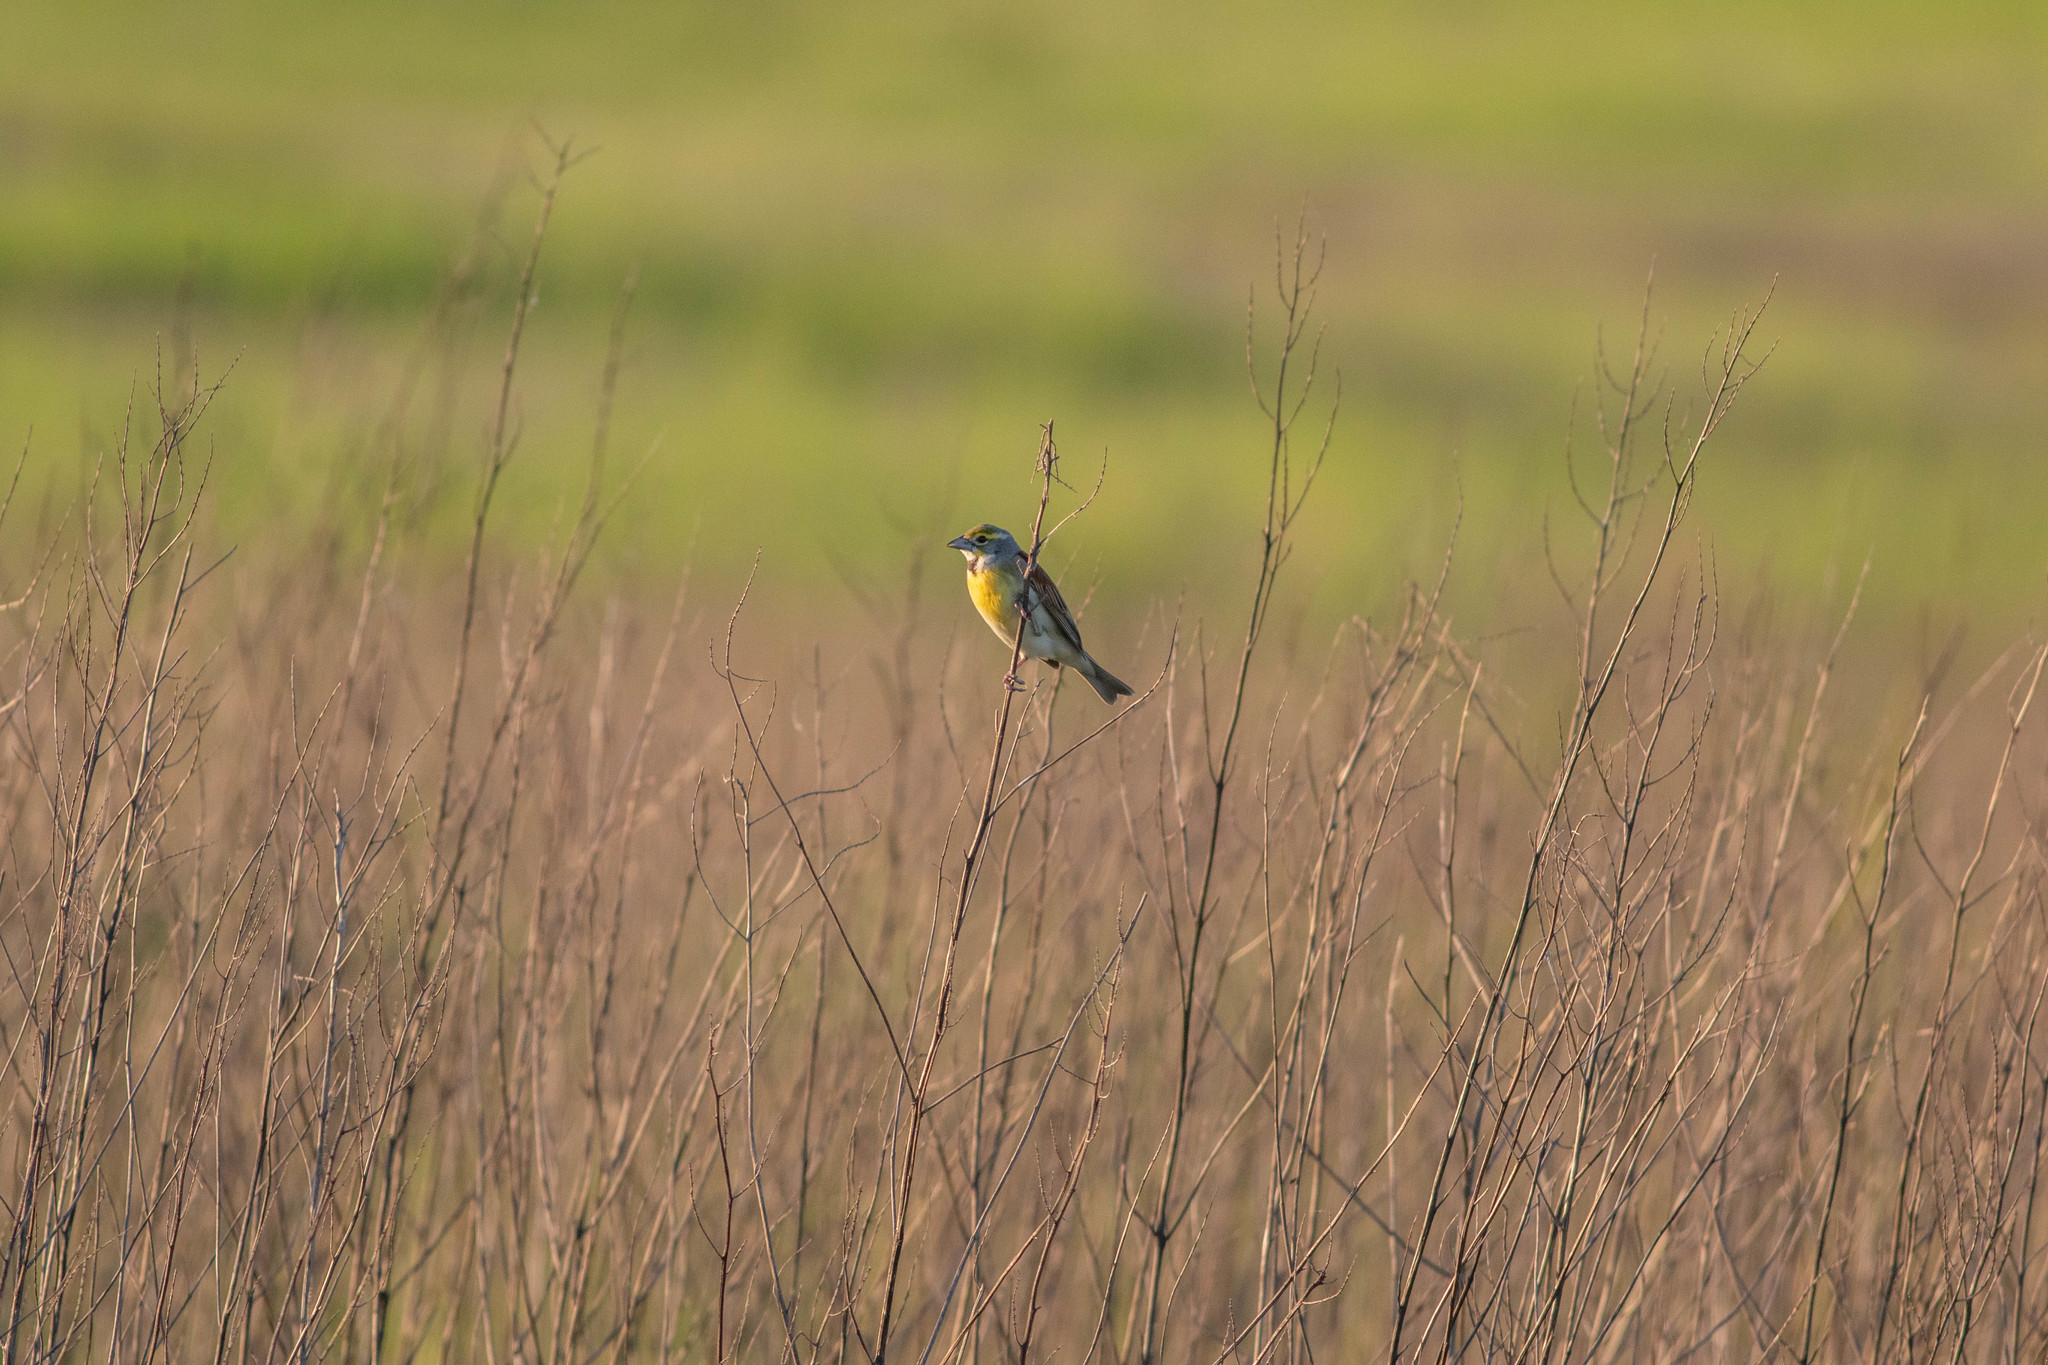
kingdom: Animalia
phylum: Chordata
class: Aves
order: Passeriformes
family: Cardinalidae
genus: Spiza
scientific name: Spiza americana
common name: Dickcissel
